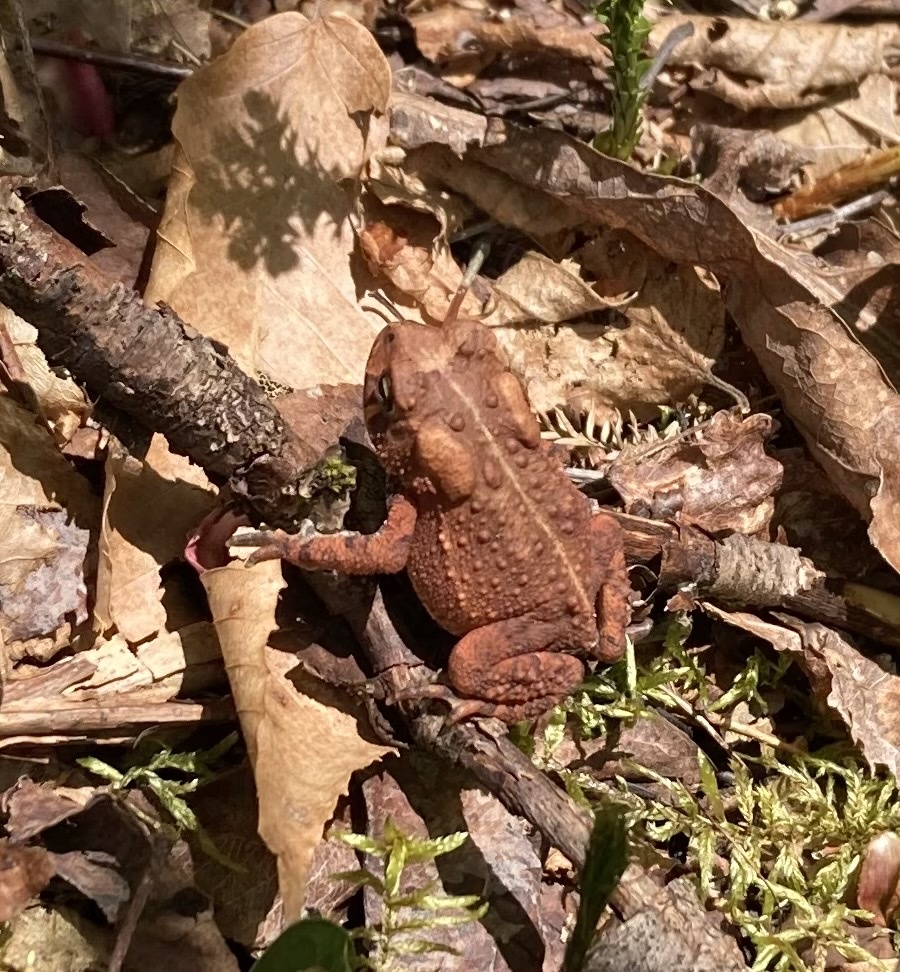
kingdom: Animalia
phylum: Chordata
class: Amphibia
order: Anura
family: Bufonidae
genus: Anaxyrus
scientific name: Anaxyrus americanus
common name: American toad
